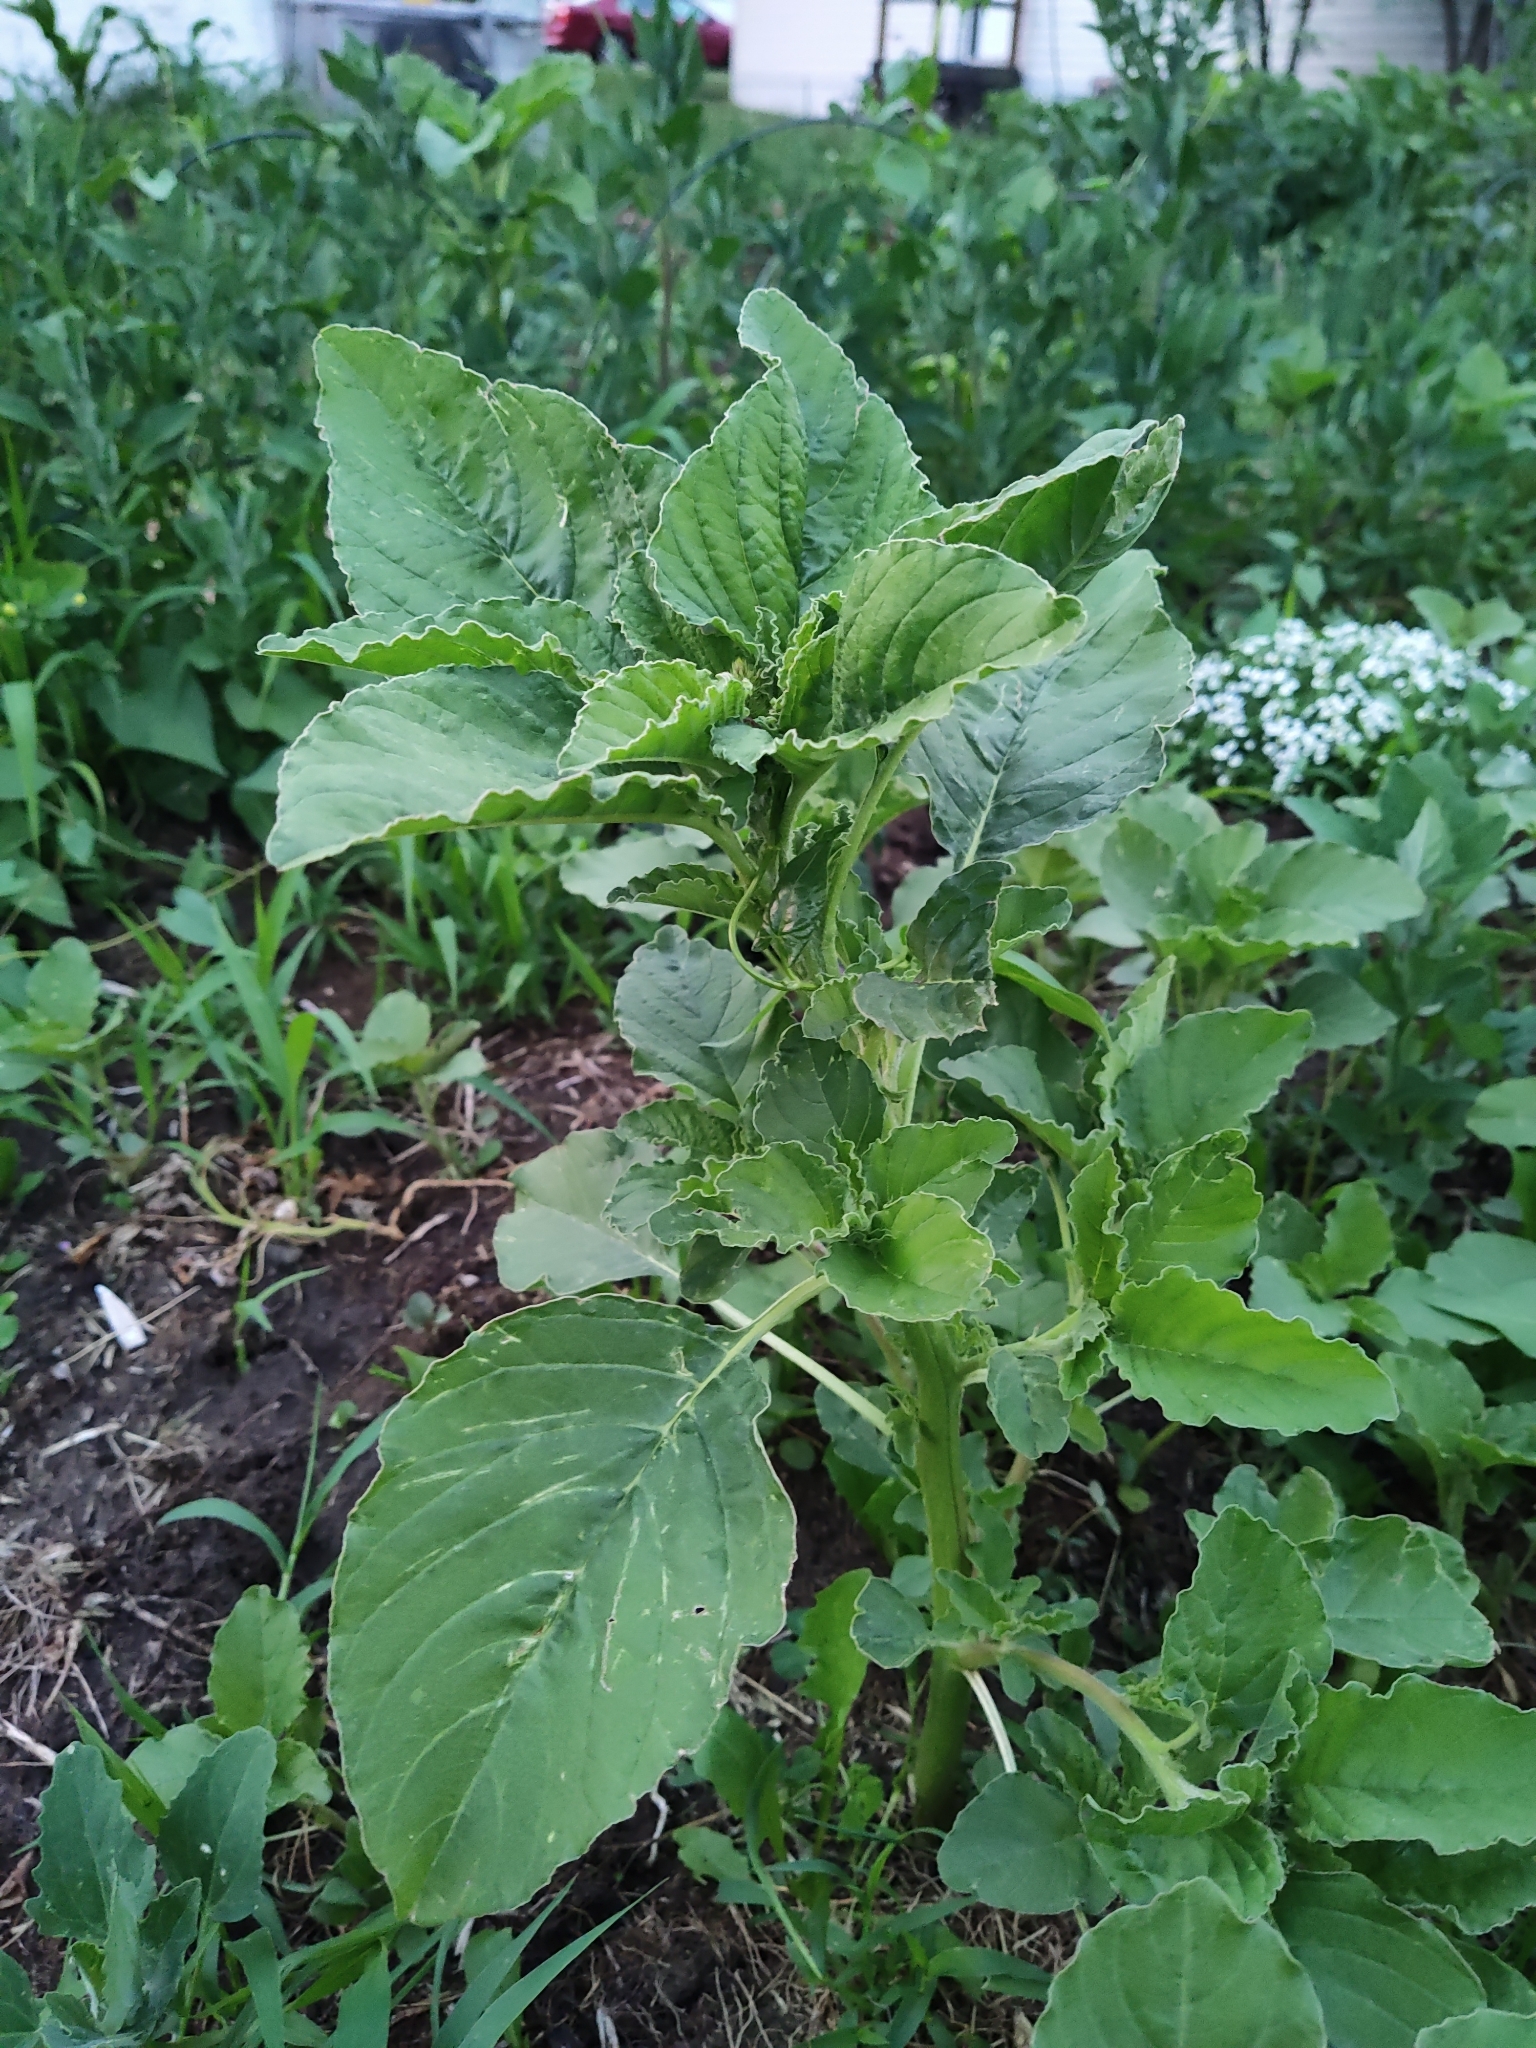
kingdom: Plantae
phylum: Tracheophyta
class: Magnoliopsida
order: Caryophyllales
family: Amaranthaceae
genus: Amaranthus
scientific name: Amaranthus retroflexus
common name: Redroot amaranth
